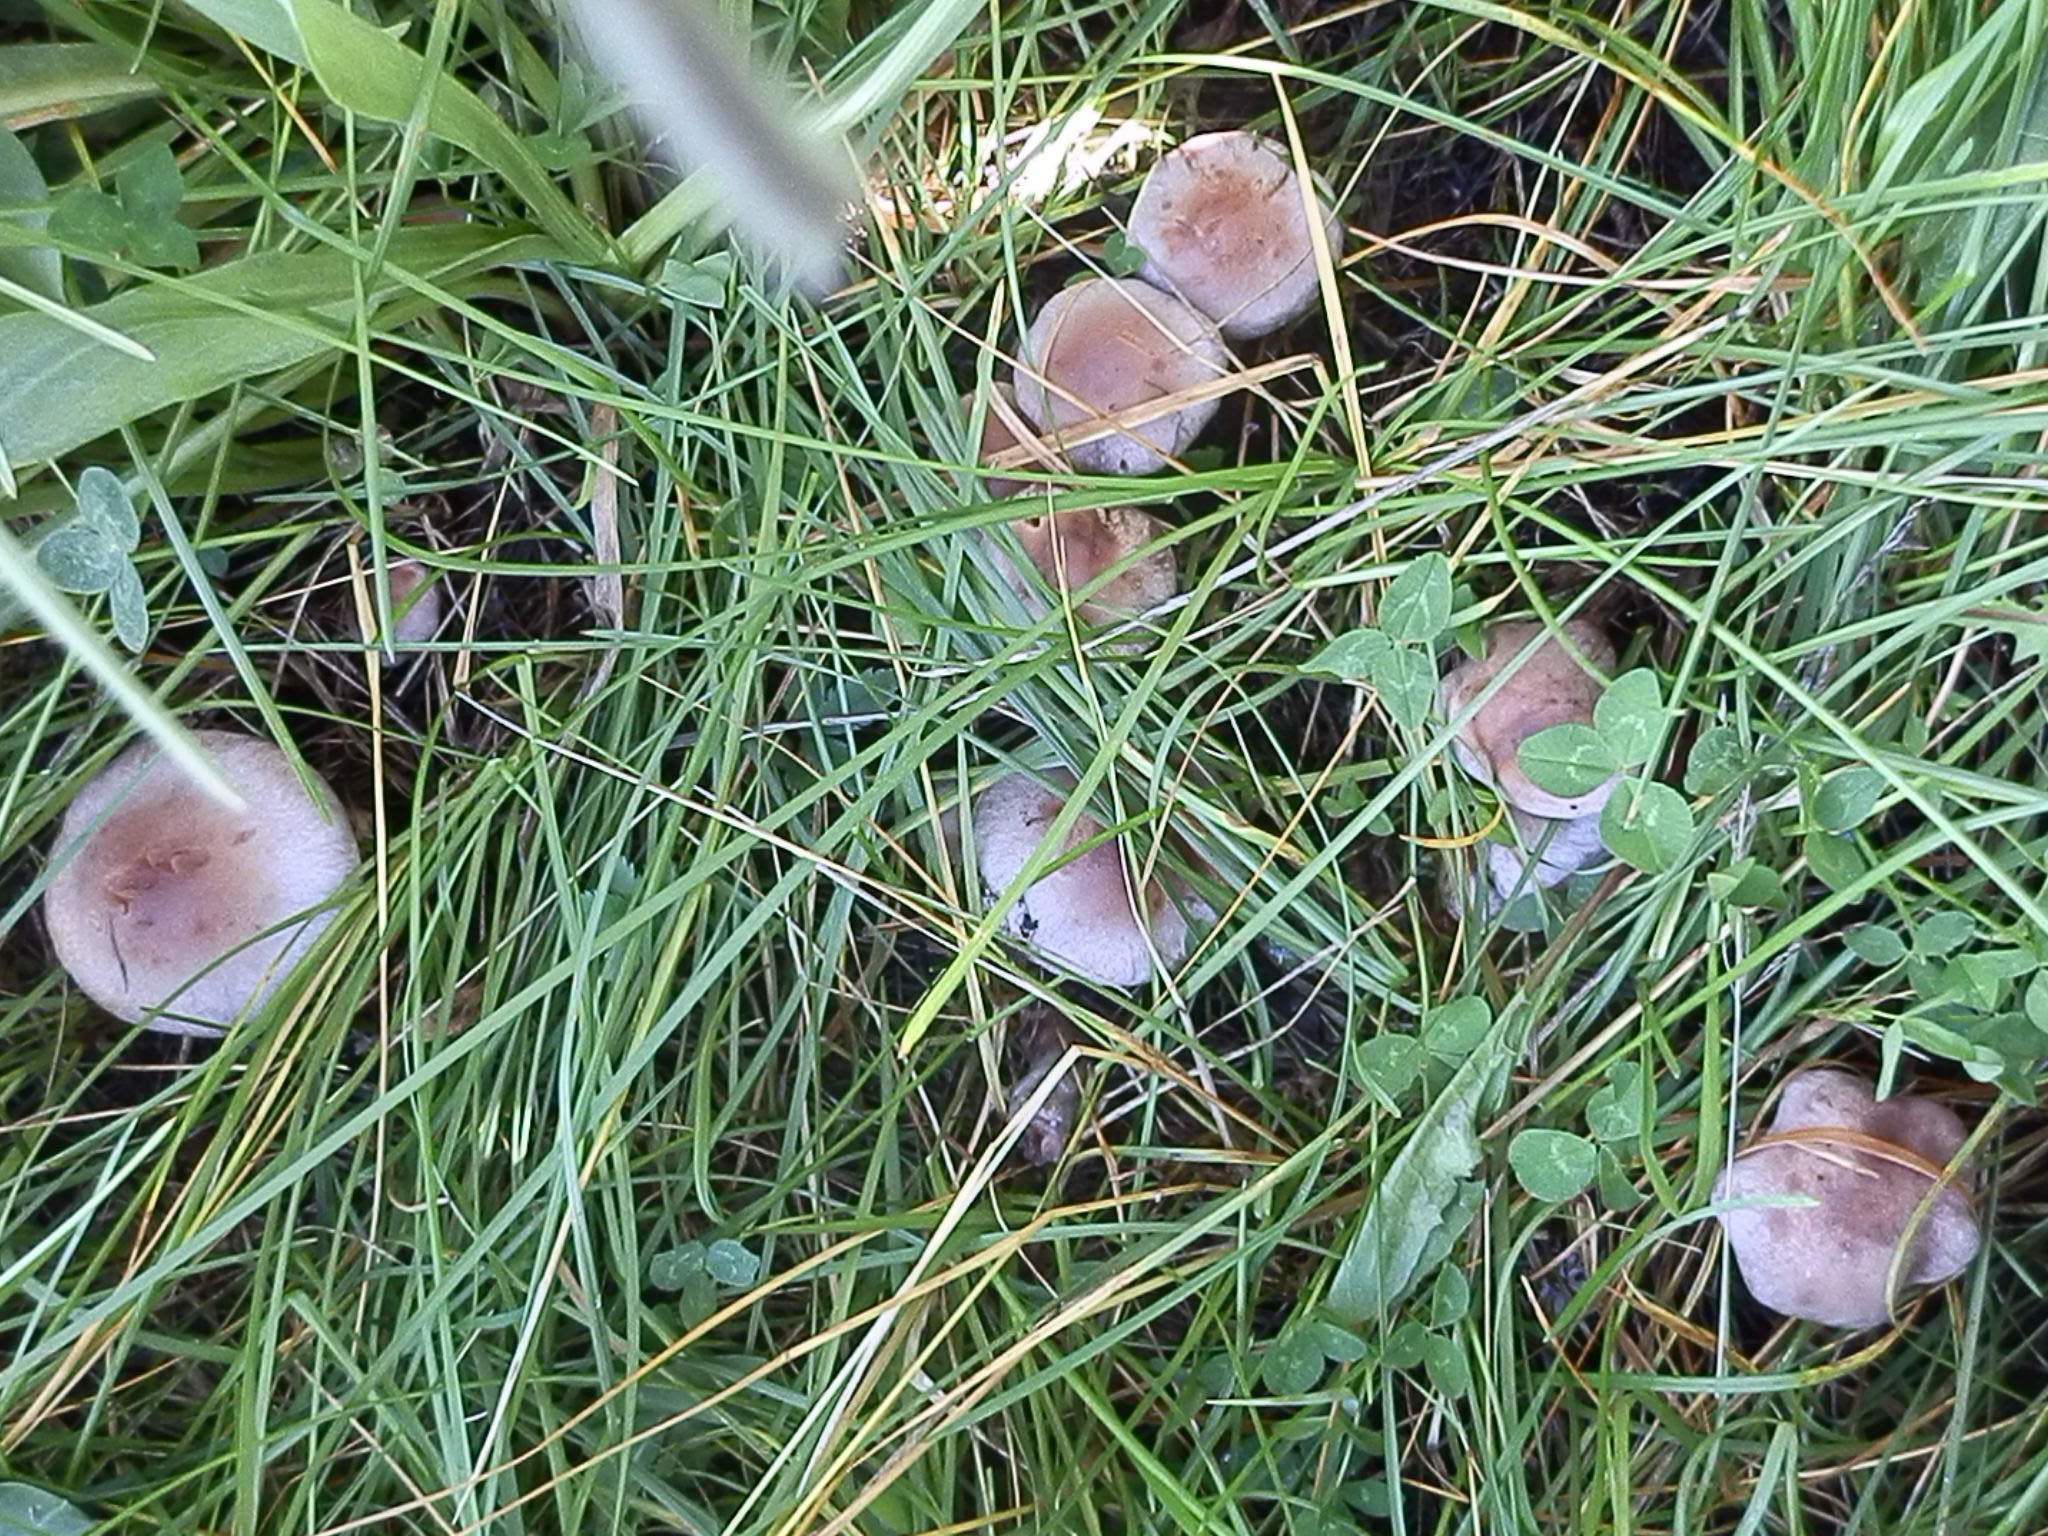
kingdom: Fungi
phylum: Basidiomycota
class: Agaricomycetes
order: Agaricales
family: Cortinariaceae
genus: Cortinarius
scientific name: Cortinarius lucorum
